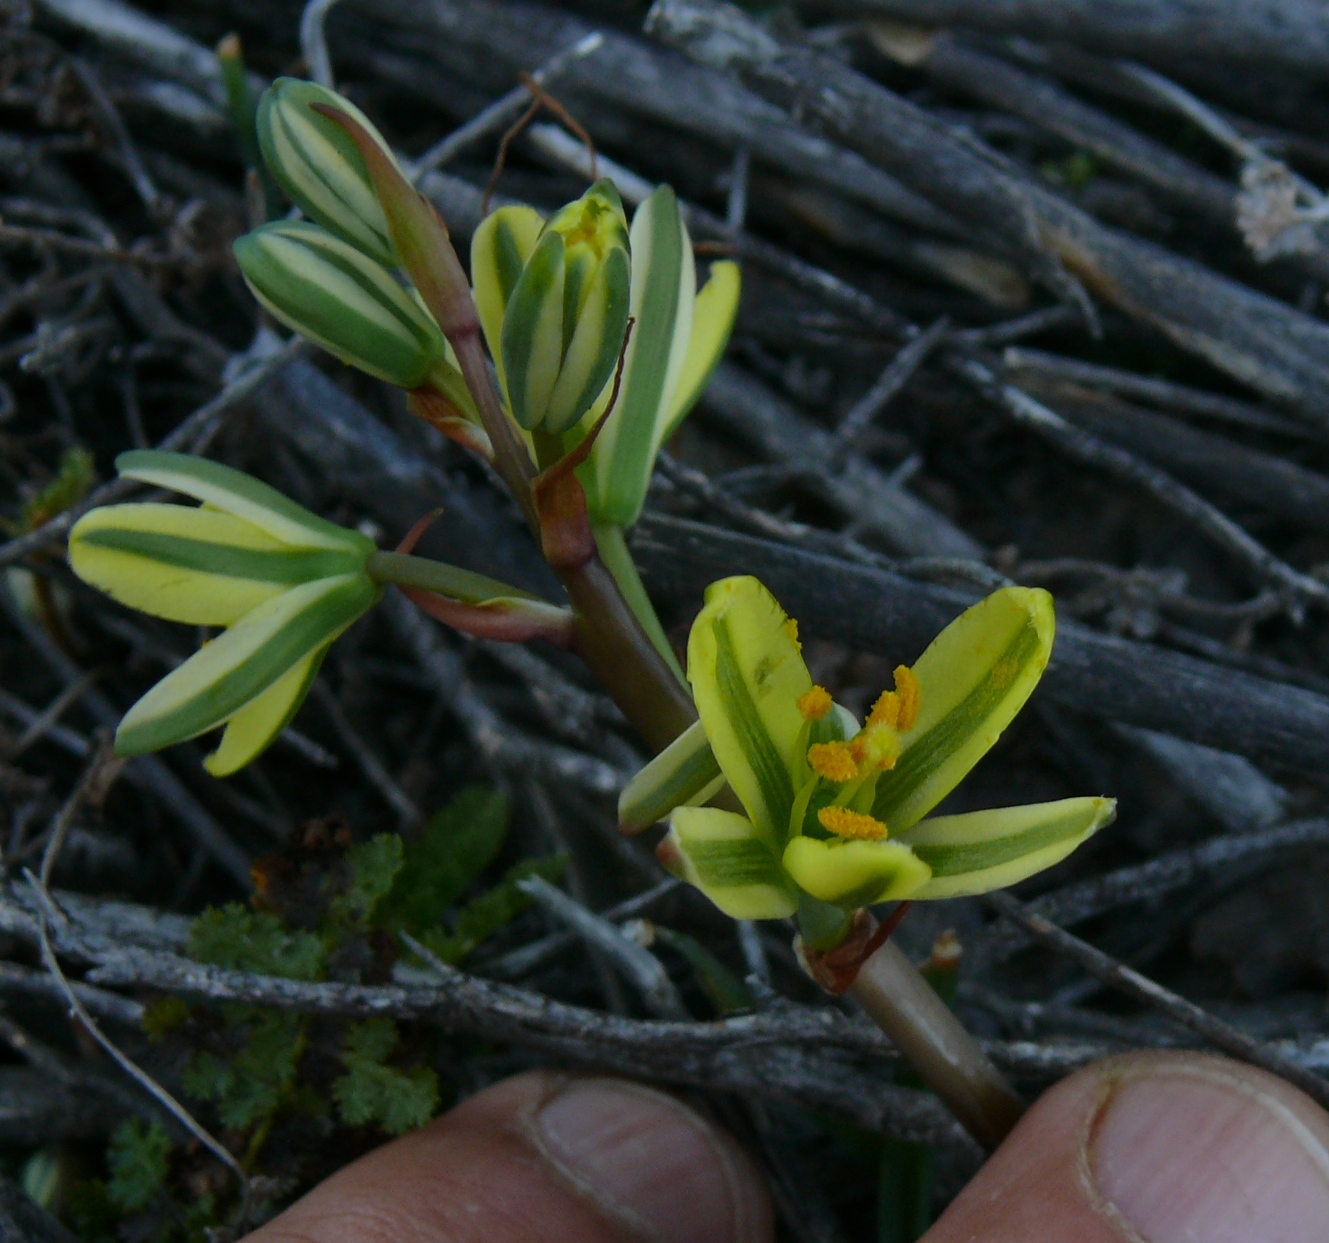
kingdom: Plantae
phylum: Tracheophyta
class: Liliopsida
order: Asparagales
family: Asparagaceae
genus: Albuca
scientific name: Albuca suaveolens
